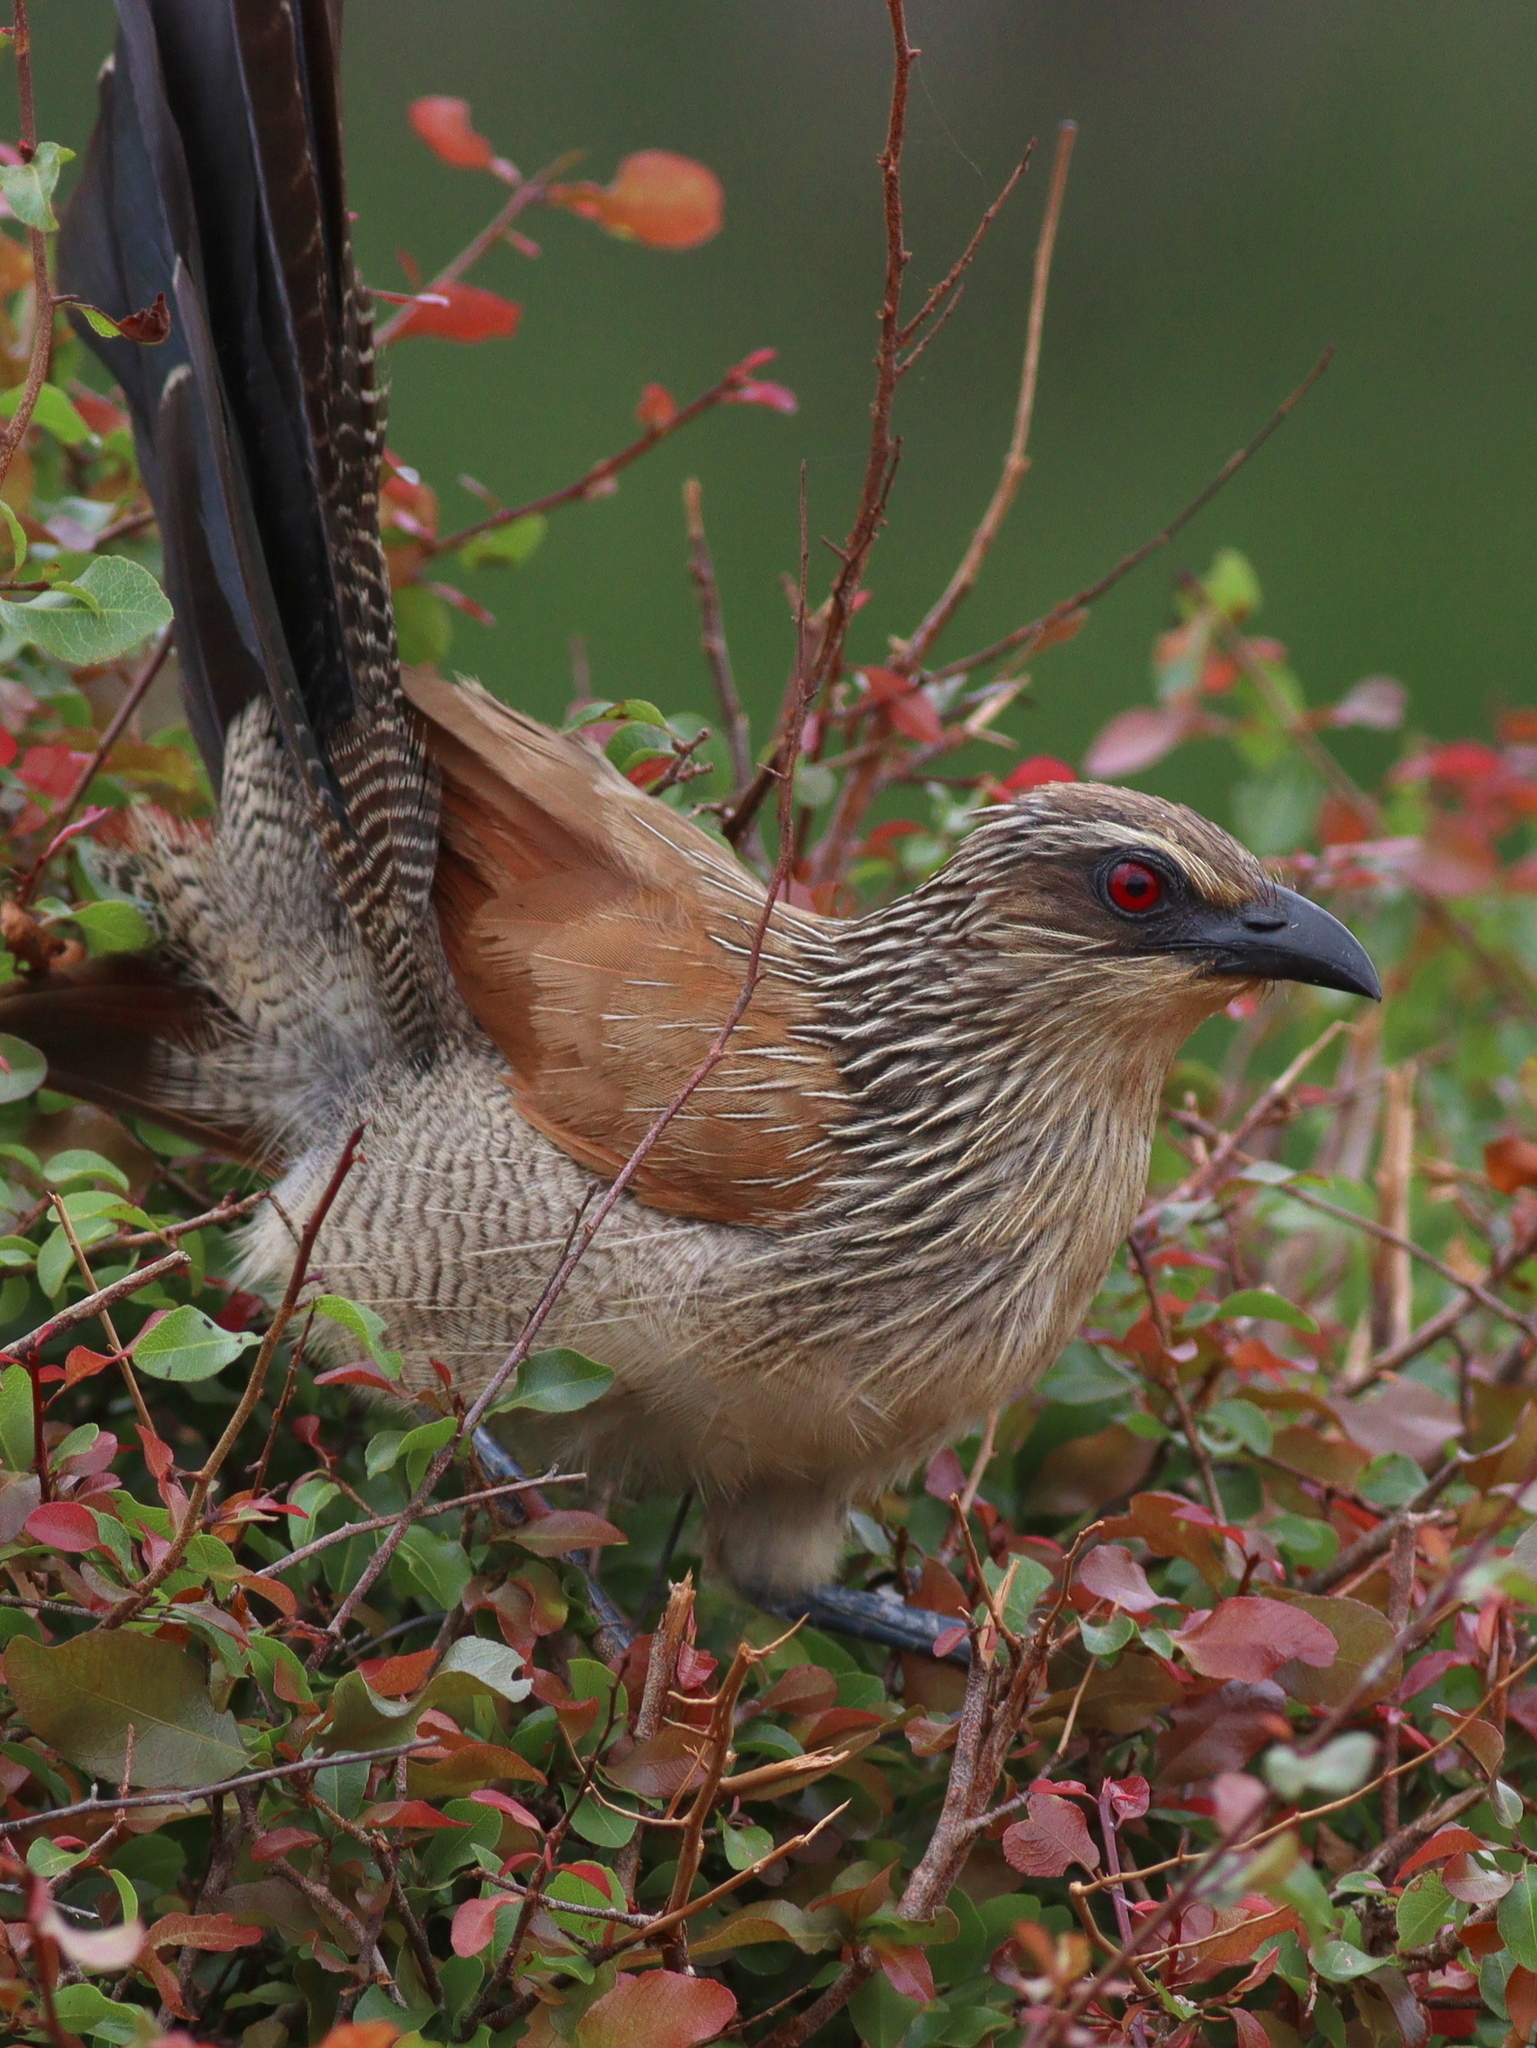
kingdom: Animalia
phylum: Chordata
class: Aves
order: Cuculiformes
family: Cuculidae
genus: Centropus
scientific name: Centropus superciliosus
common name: White-browed coucal
